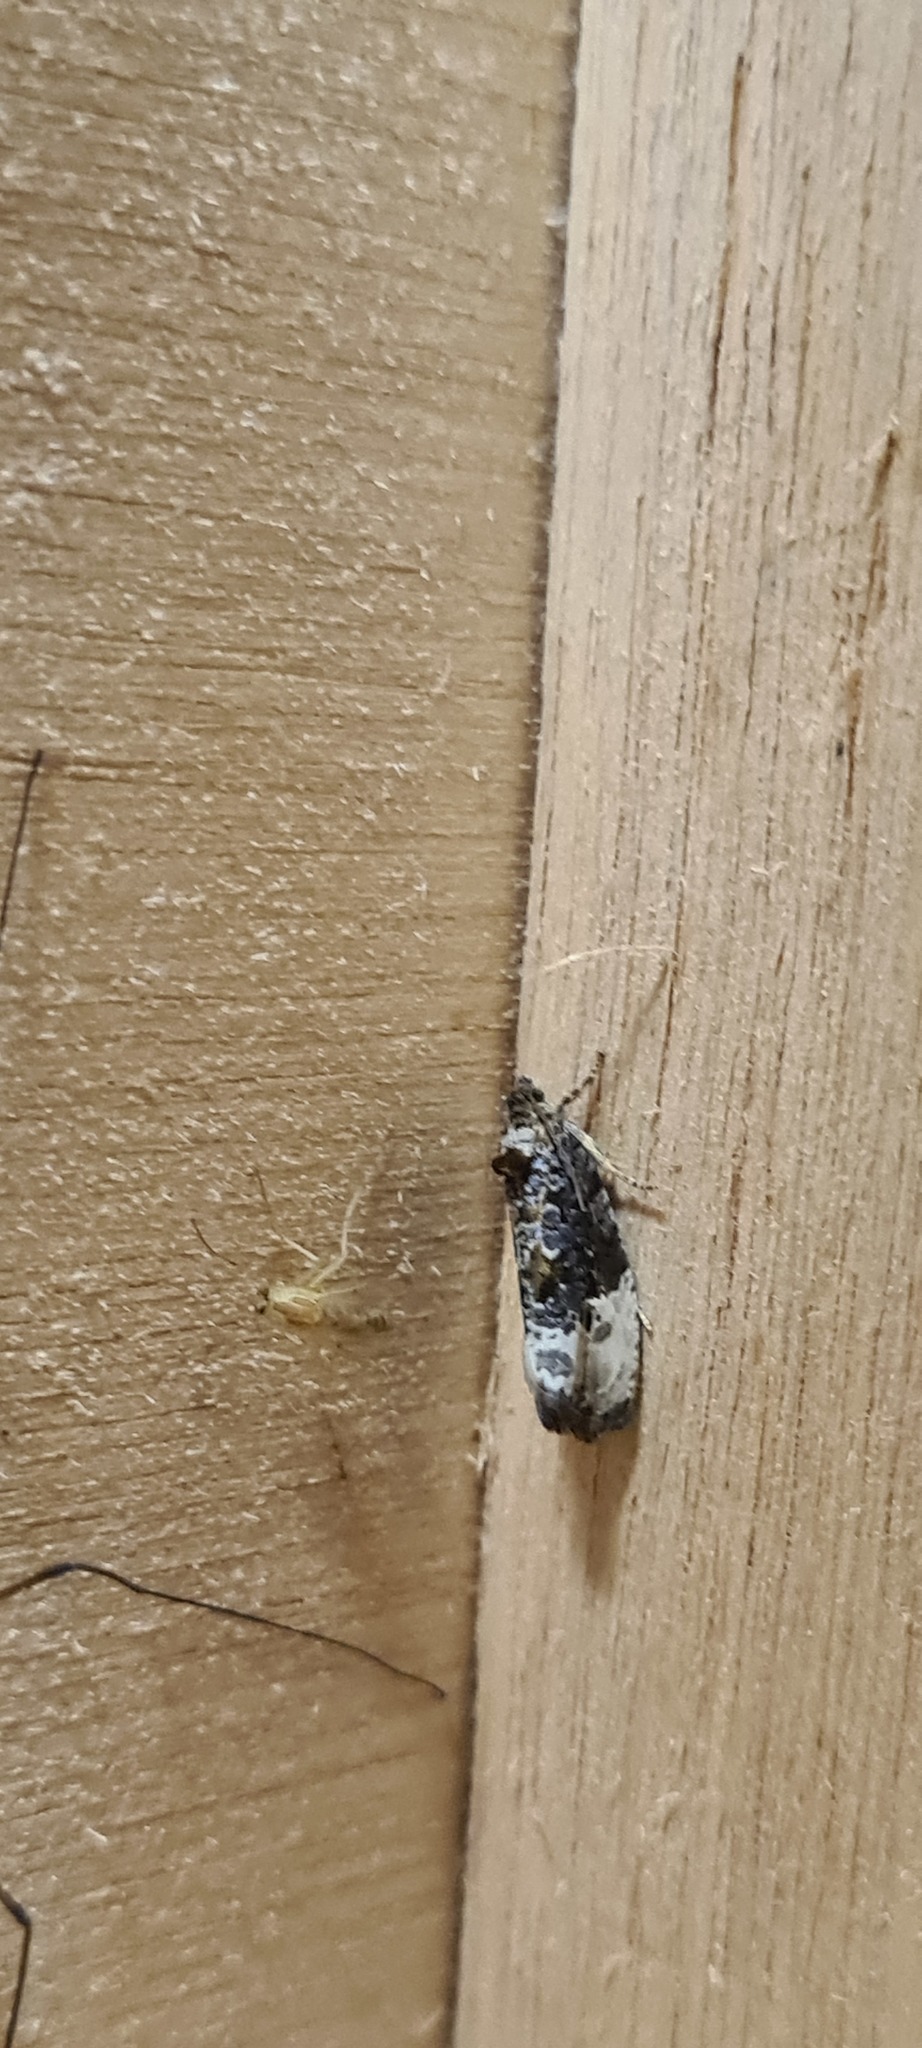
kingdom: Animalia
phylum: Arthropoda
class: Insecta
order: Lepidoptera
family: Tortricidae
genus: Hedya
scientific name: Hedya nubiferana
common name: Marbled orchard tortrix
